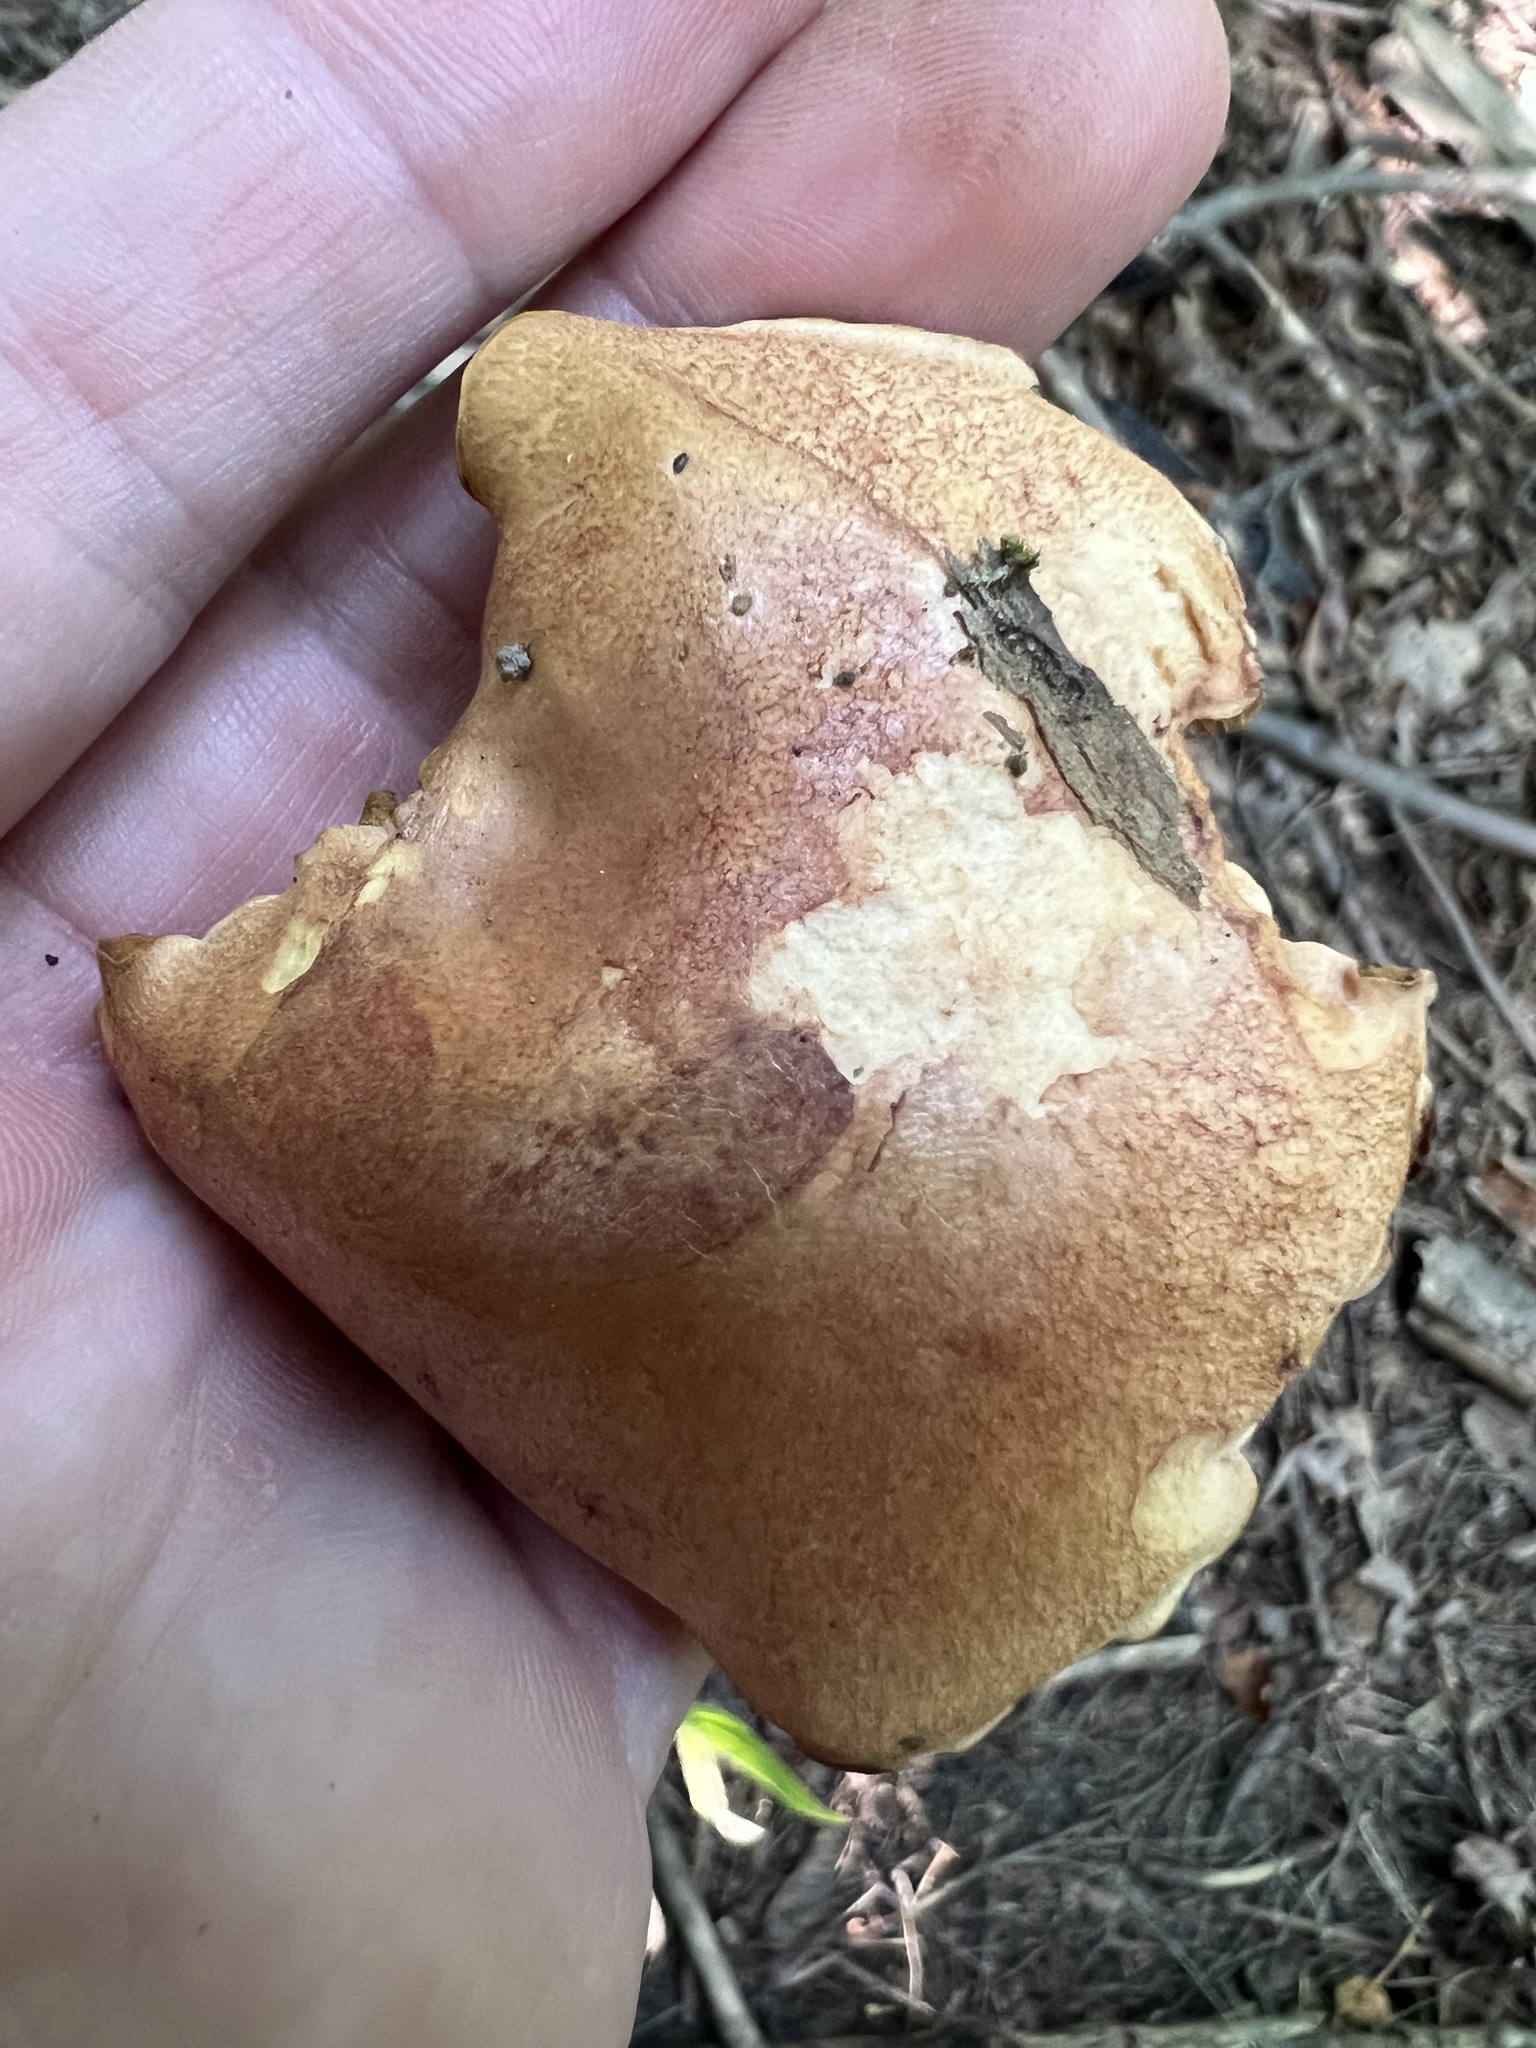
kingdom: Fungi
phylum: Basidiomycota
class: Agaricomycetes
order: Boletales
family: Boletaceae
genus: Chalciporus
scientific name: Chalciporus piperatus
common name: Peppery bolete
